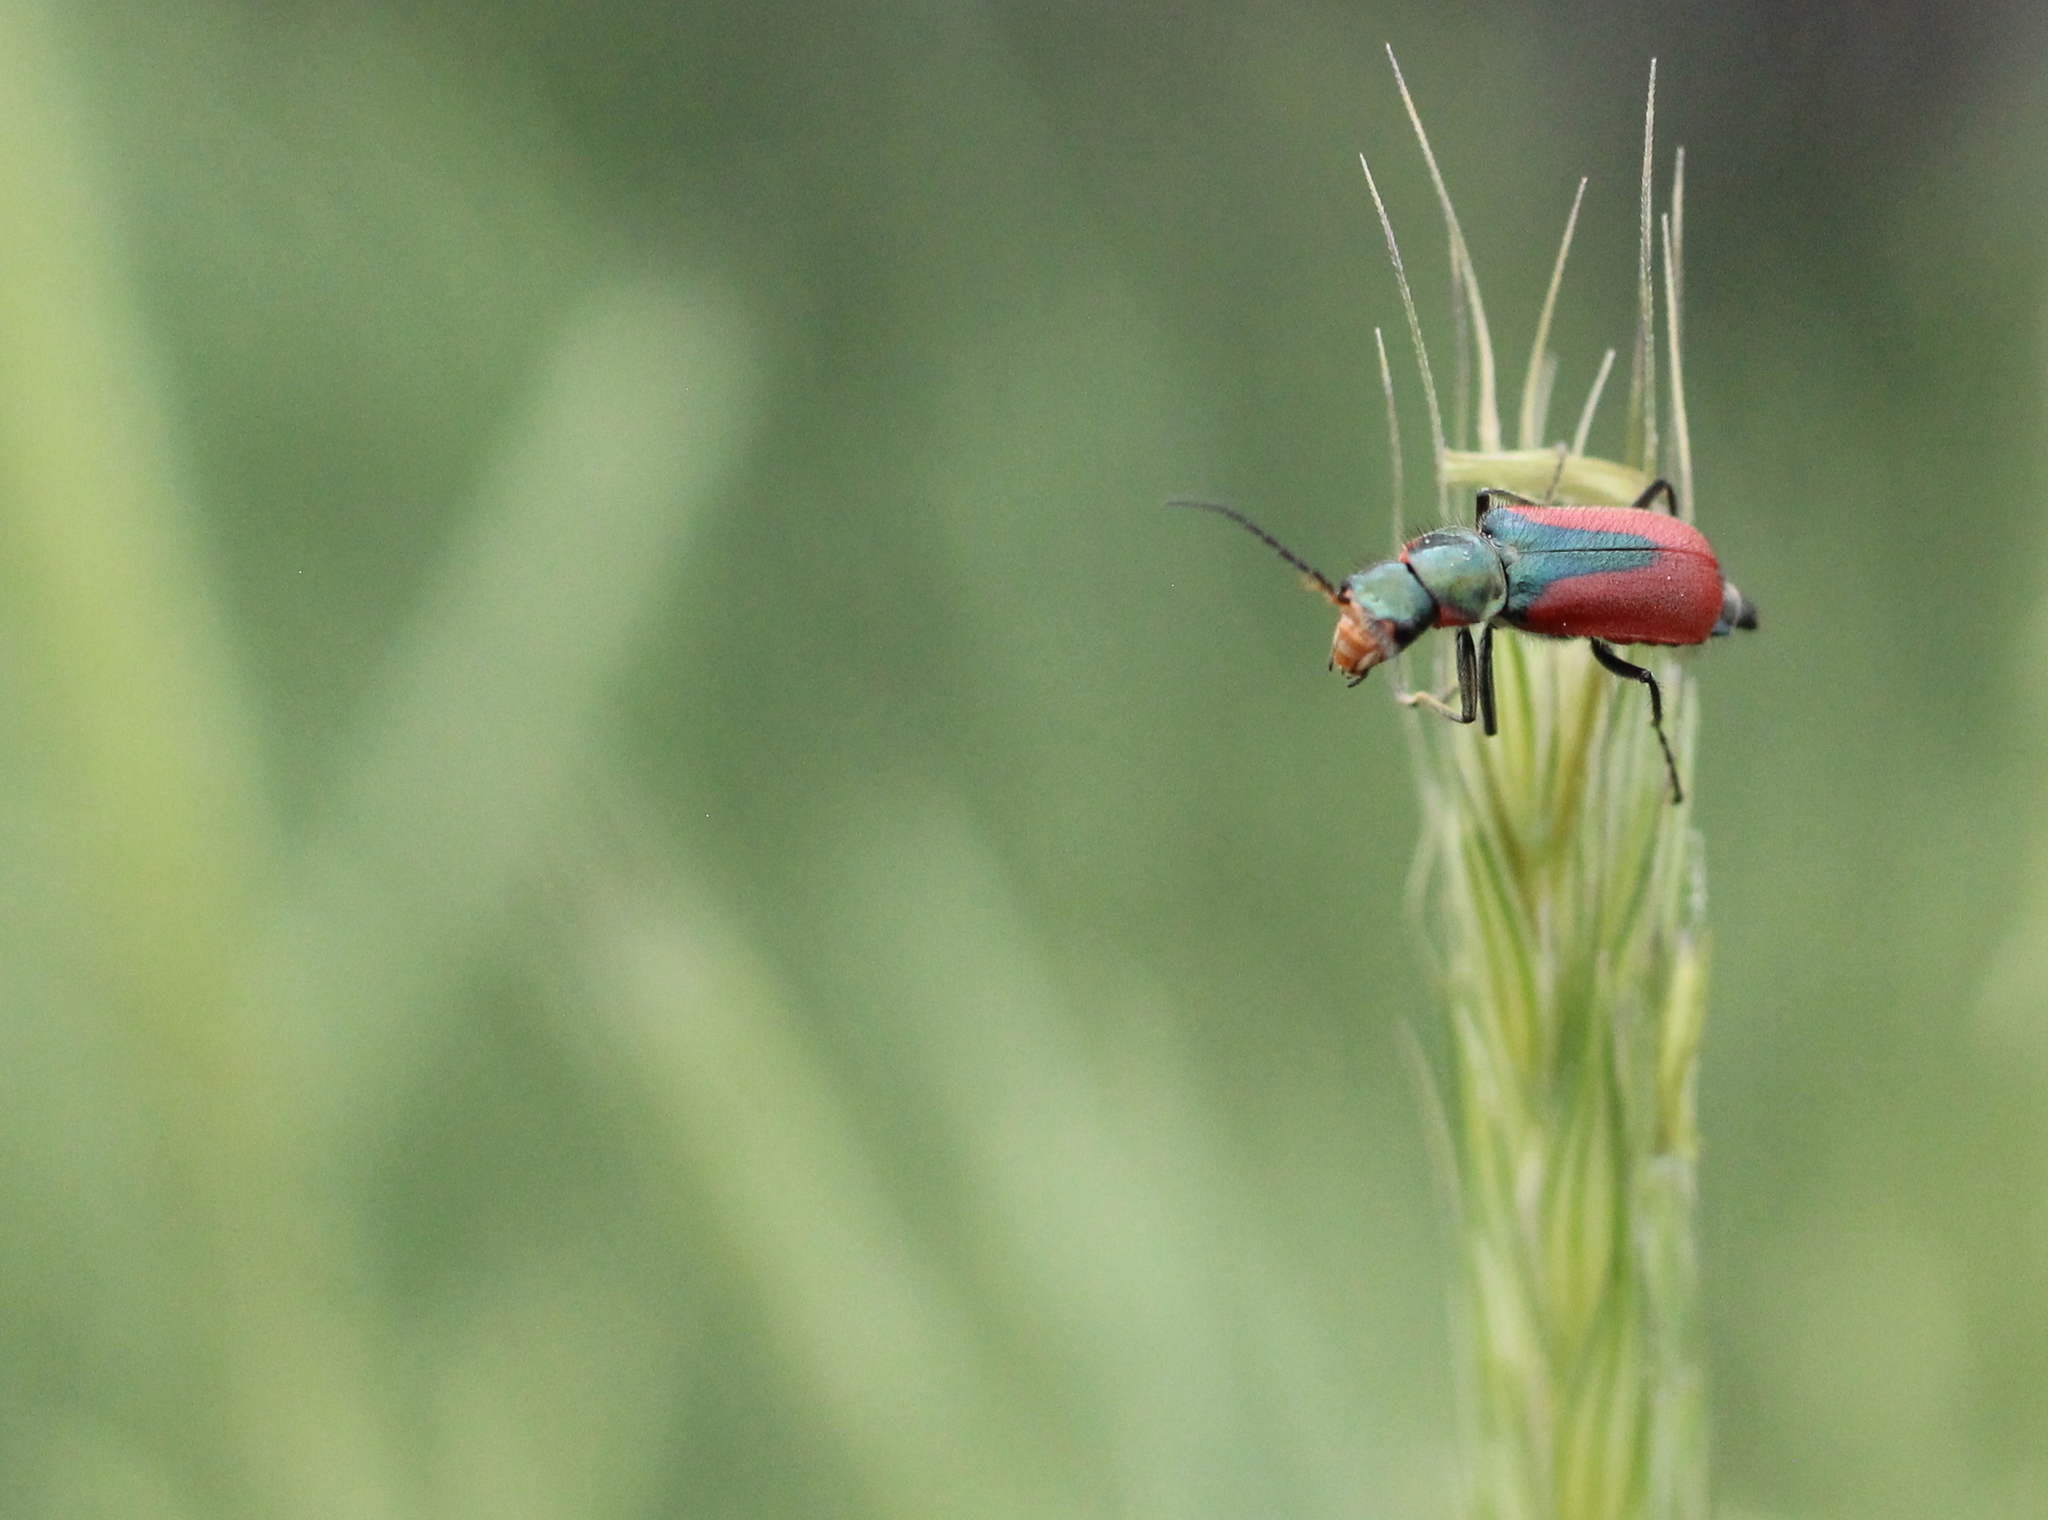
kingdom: Animalia
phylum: Arthropoda
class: Insecta
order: Coleoptera
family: Melyridae
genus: Malachius
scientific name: Malachius aeneus
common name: Scarlet malachite beetle
